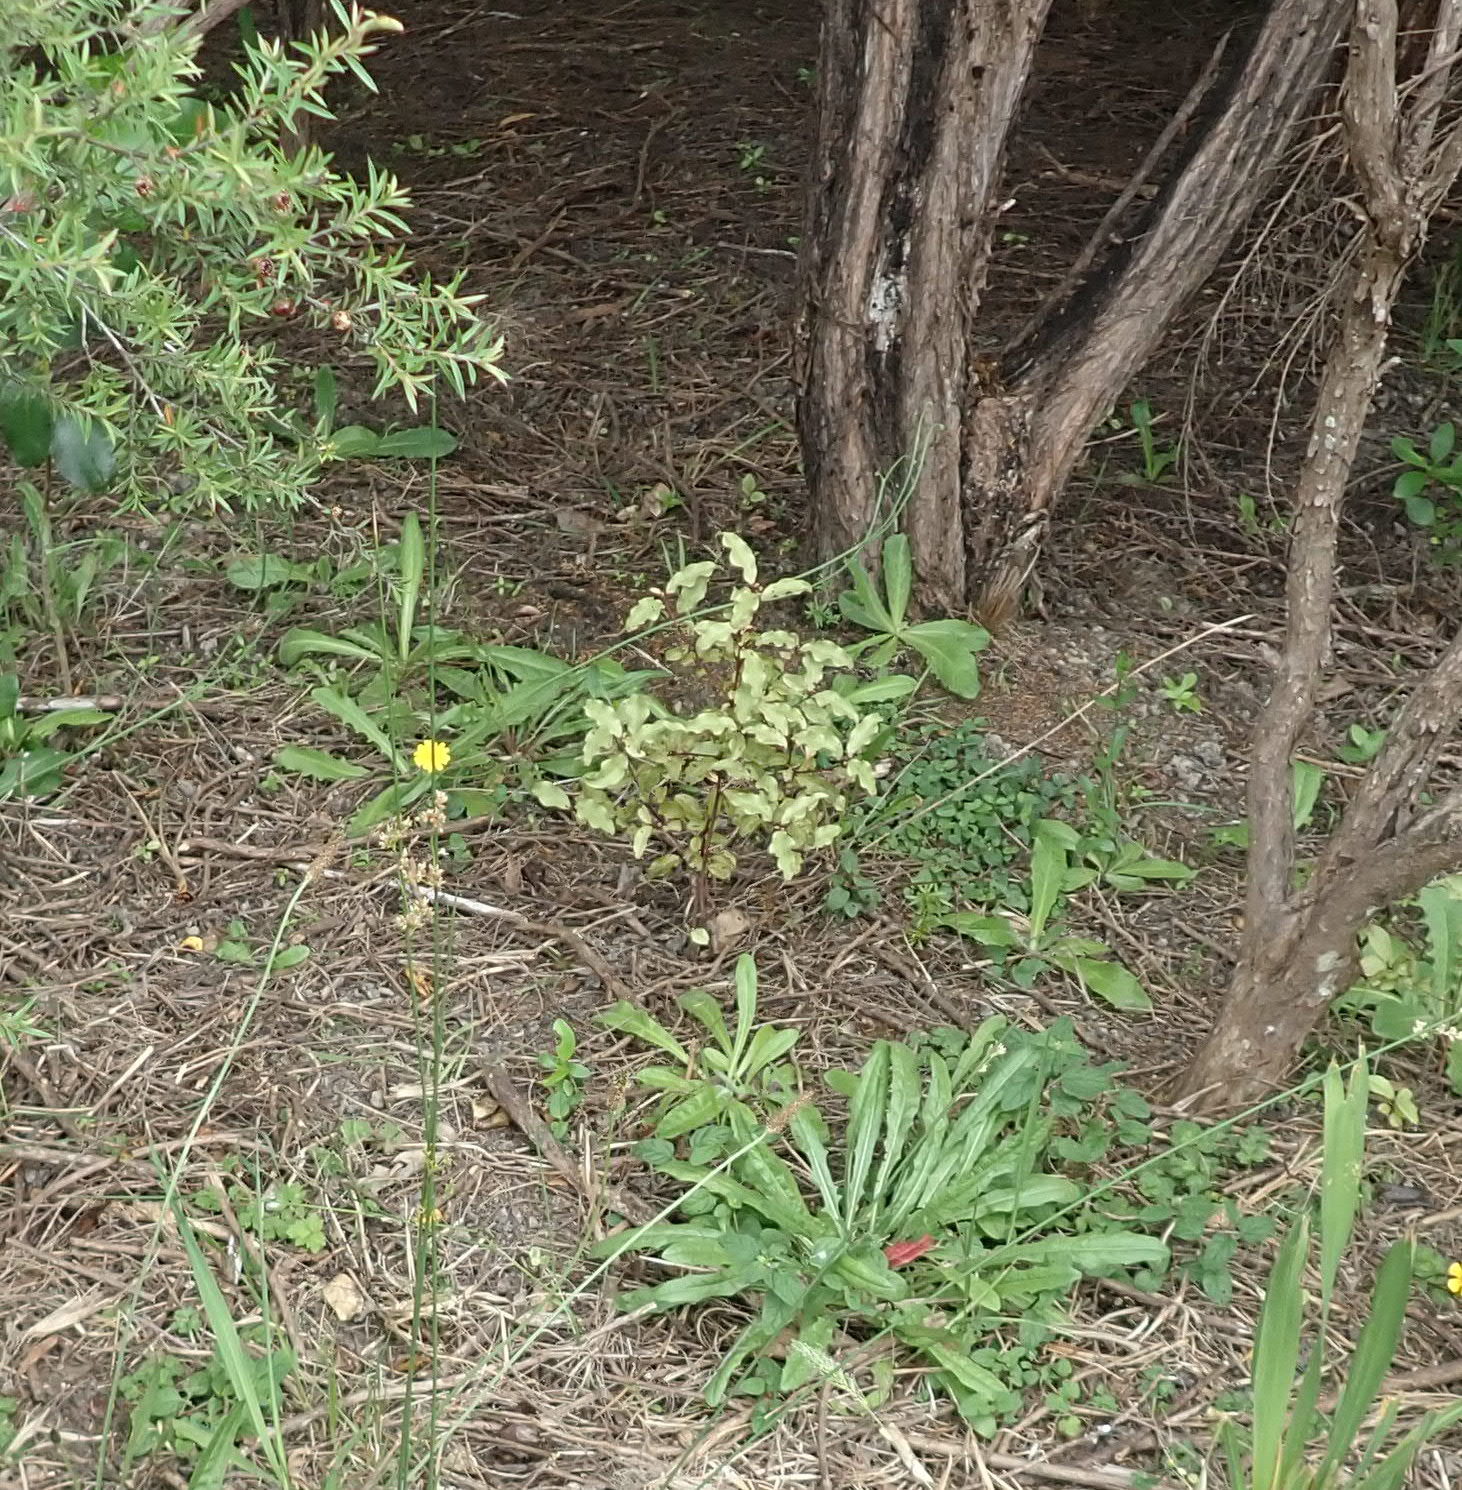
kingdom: Plantae
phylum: Tracheophyta
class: Magnoliopsida
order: Ericales
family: Primulaceae
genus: Myrsine
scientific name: Myrsine australis
